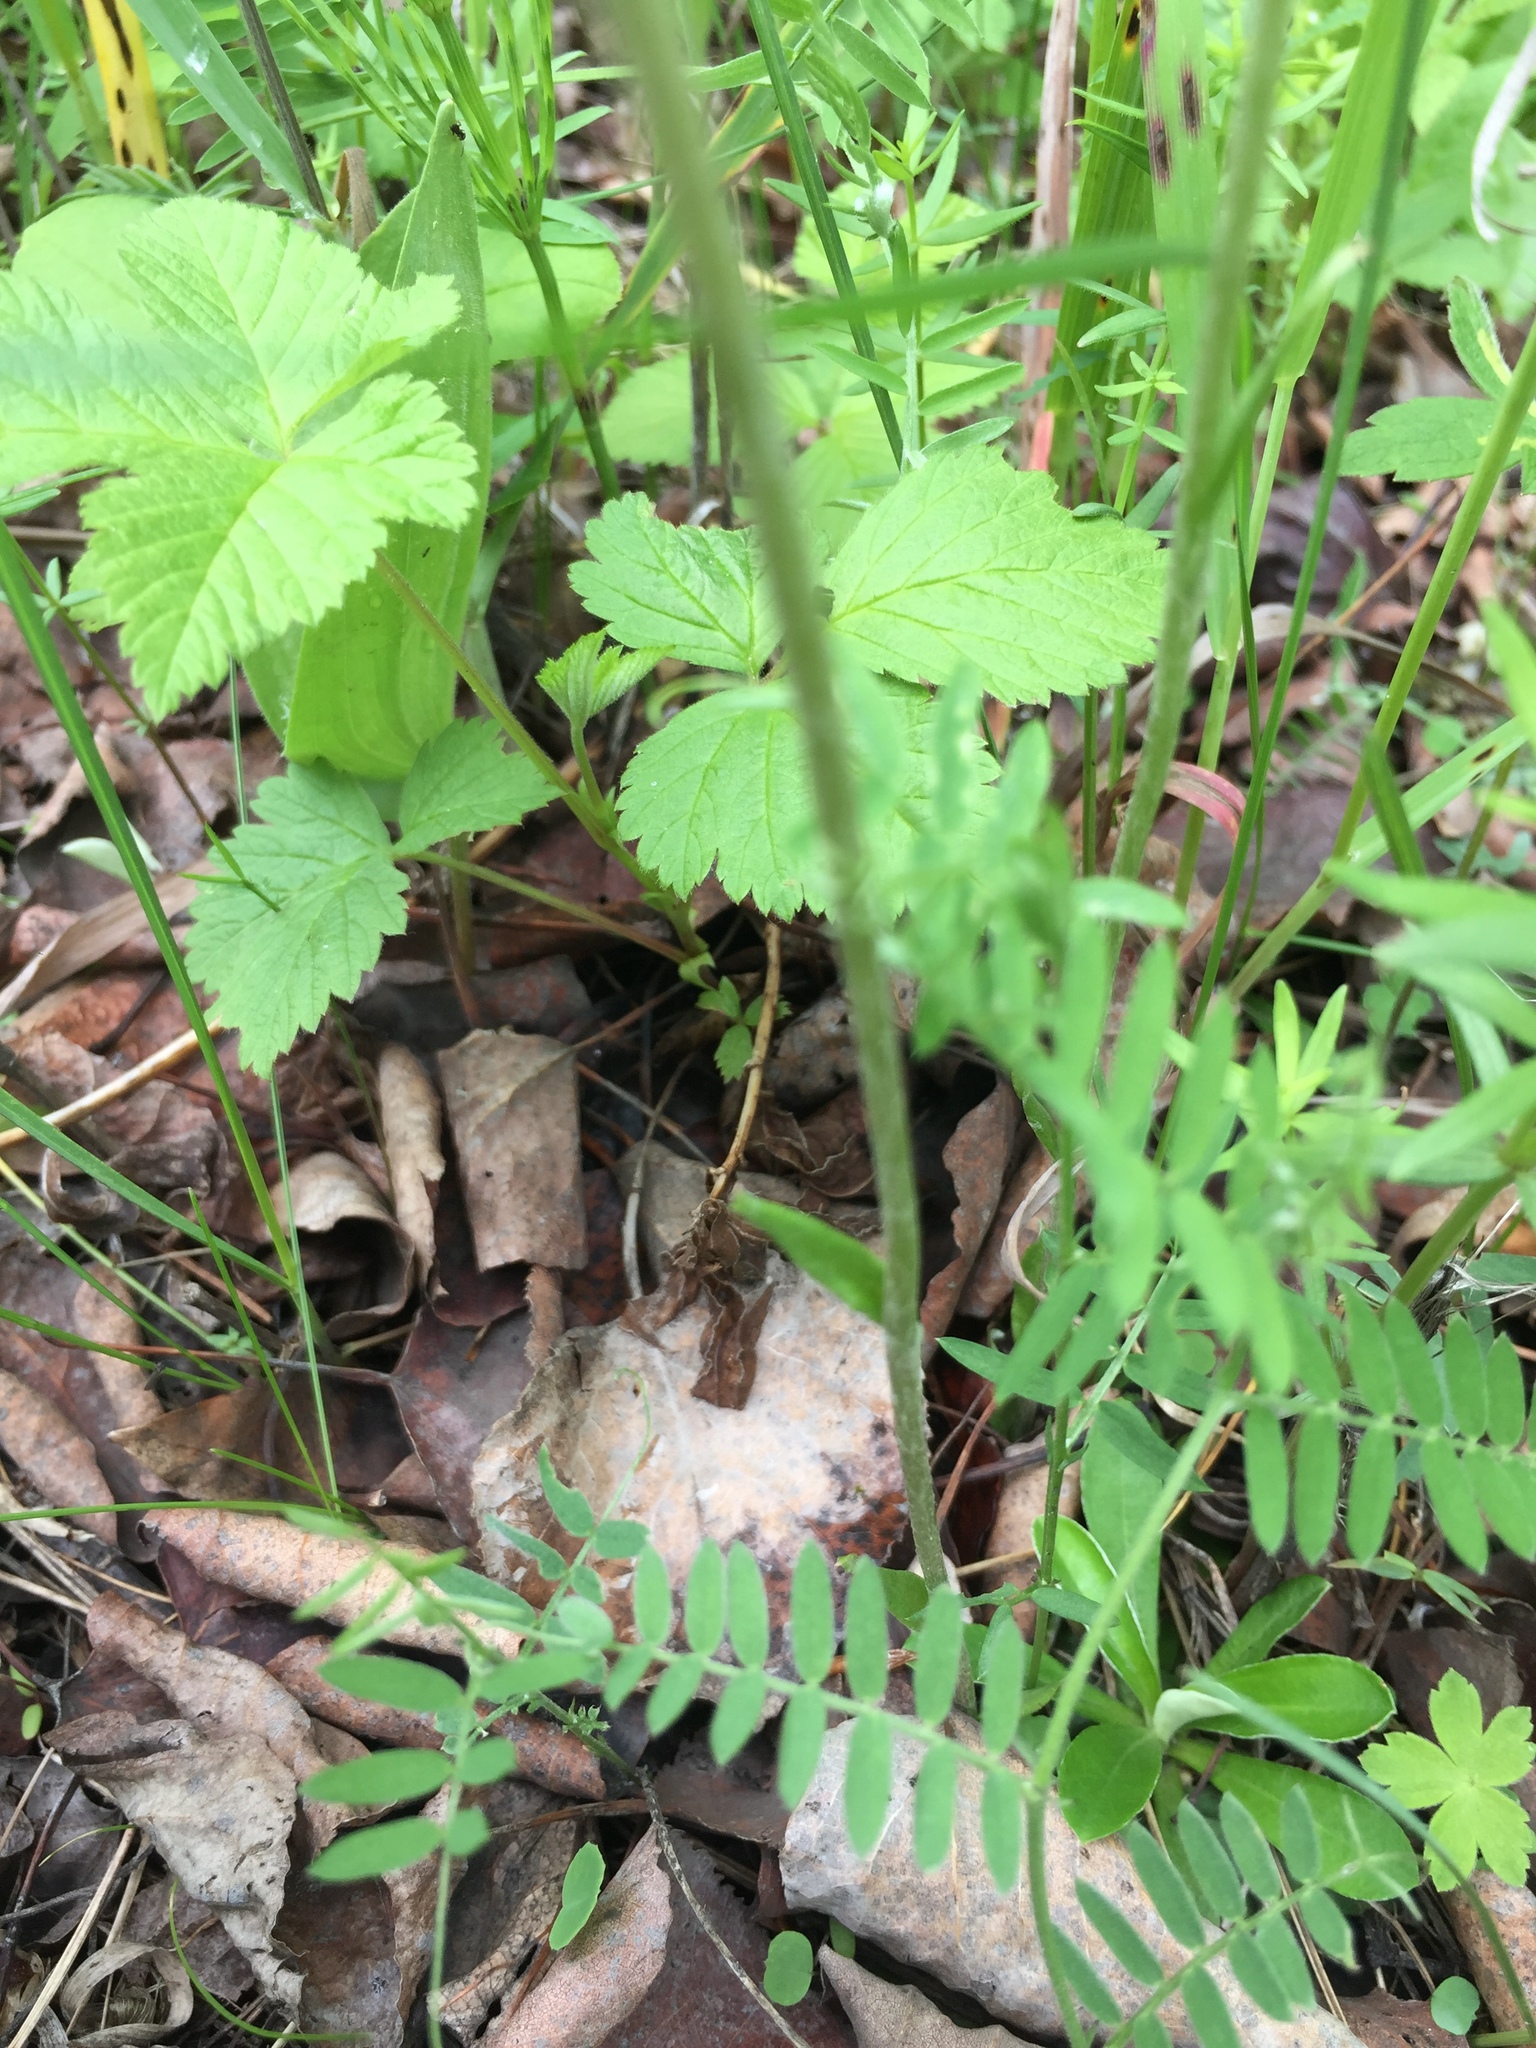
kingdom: Plantae
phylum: Tracheophyta
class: Magnoliopsida
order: Asterales
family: Asteraceae
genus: Antennaria
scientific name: Antennaria howellii
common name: Howell's pussytoes
